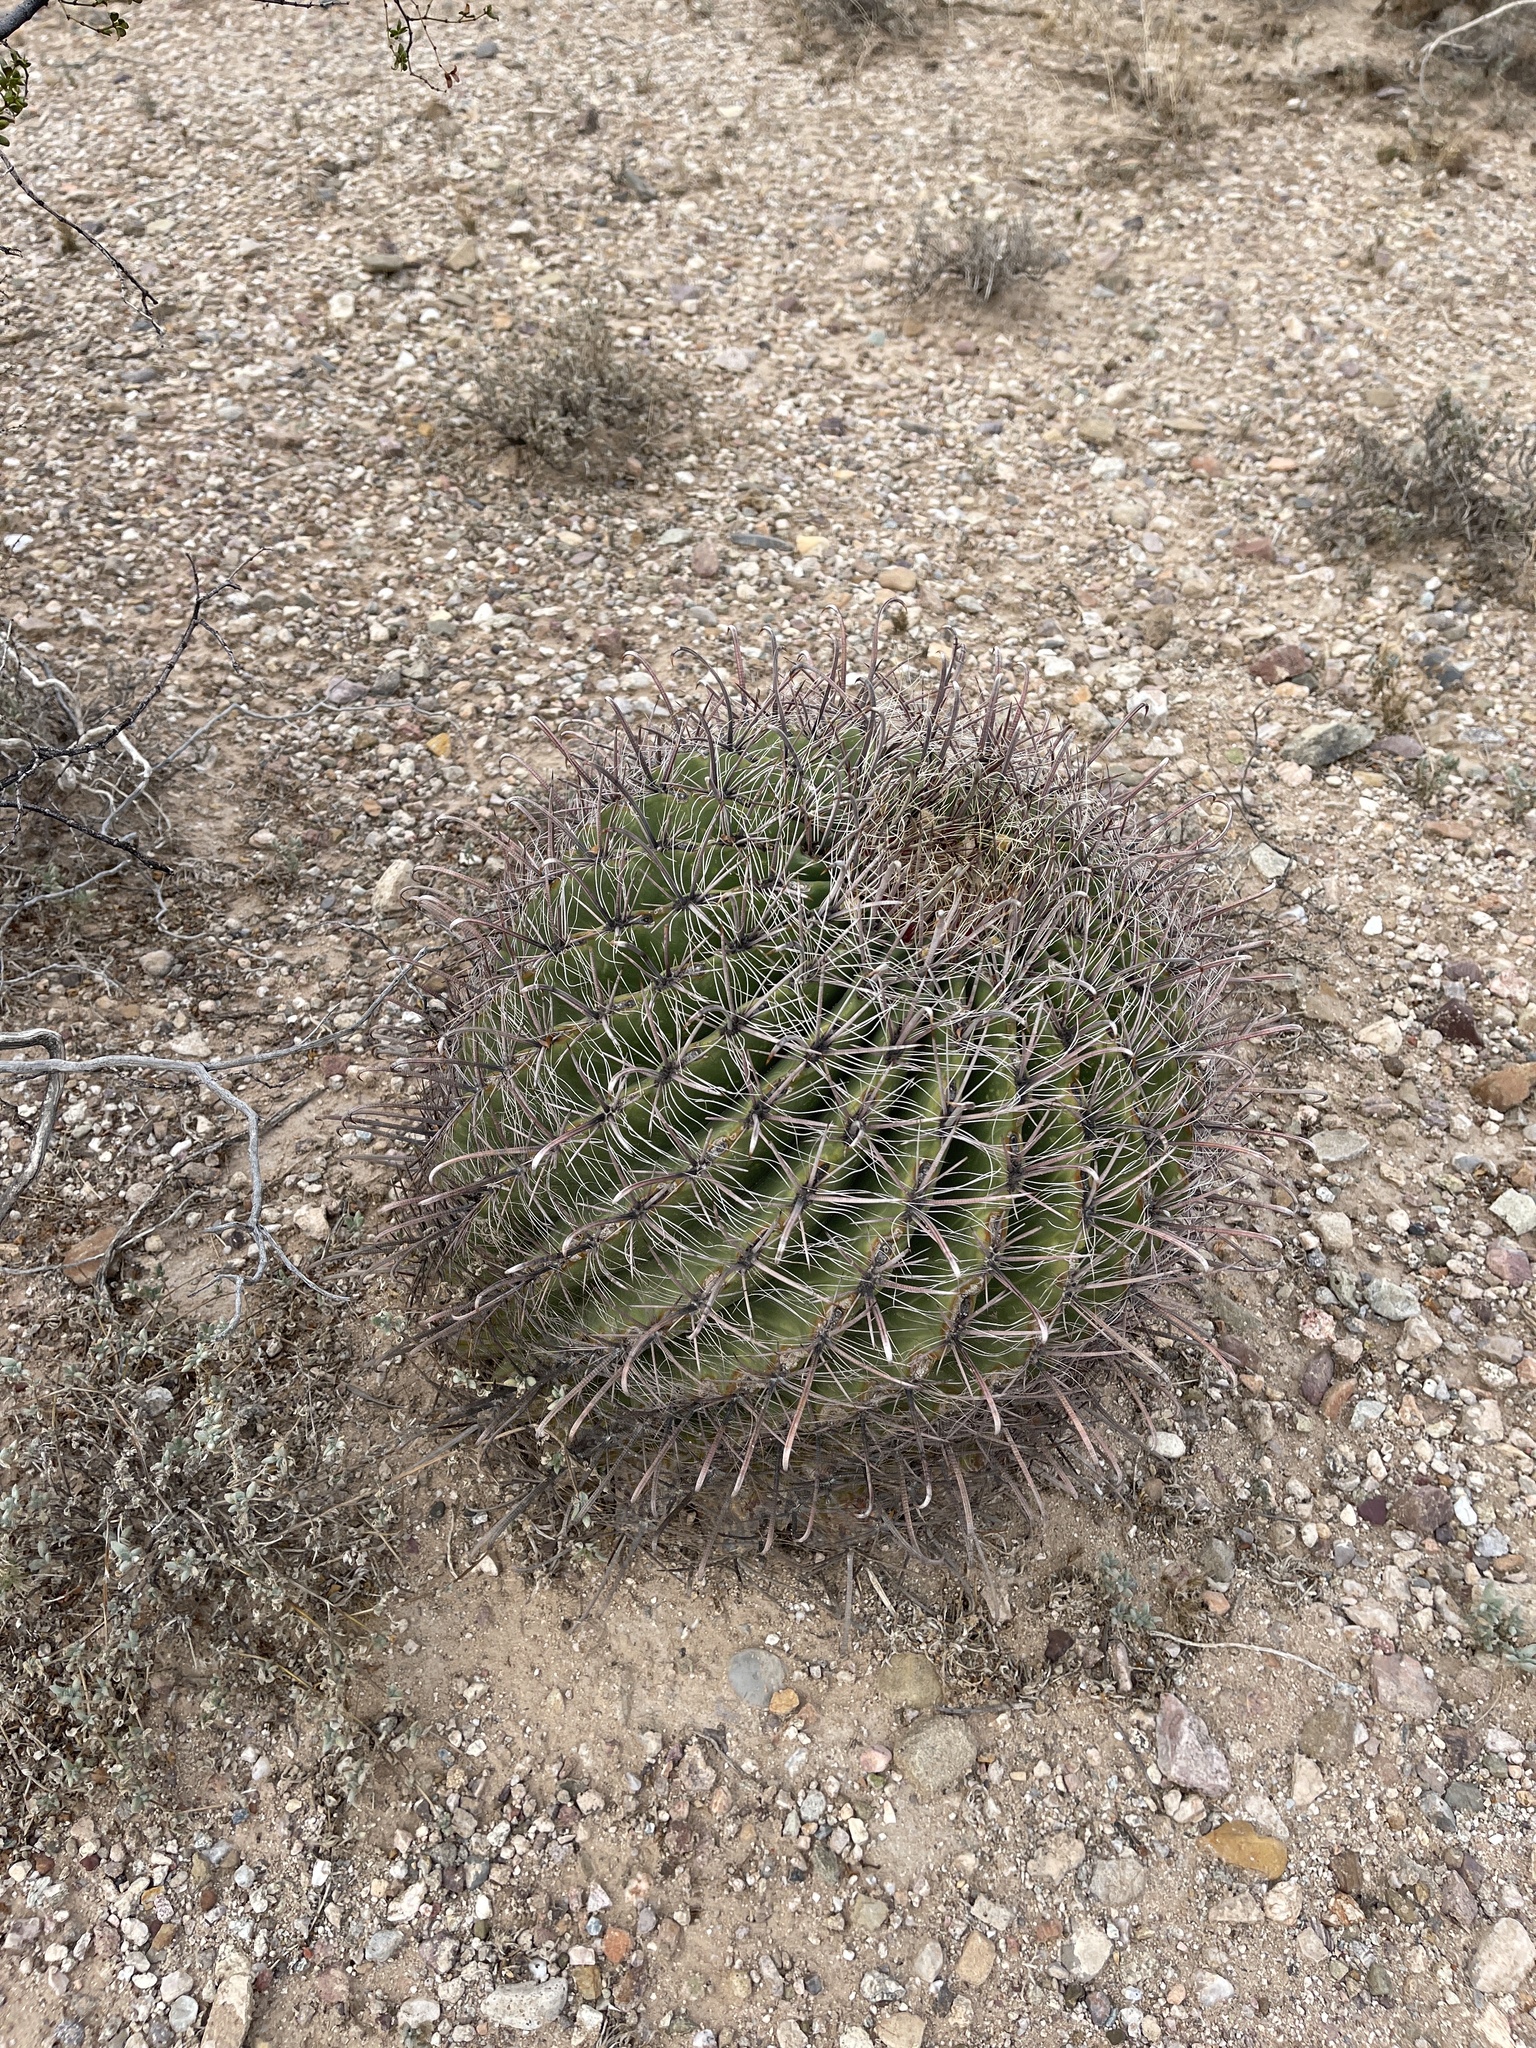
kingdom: Plantae
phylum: Tracheophyta
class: Magnoliopsida
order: Caryophyllales
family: Cactaceae
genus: Ferocactus
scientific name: Ferocactus wislizeni
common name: Candy barrel cactus
